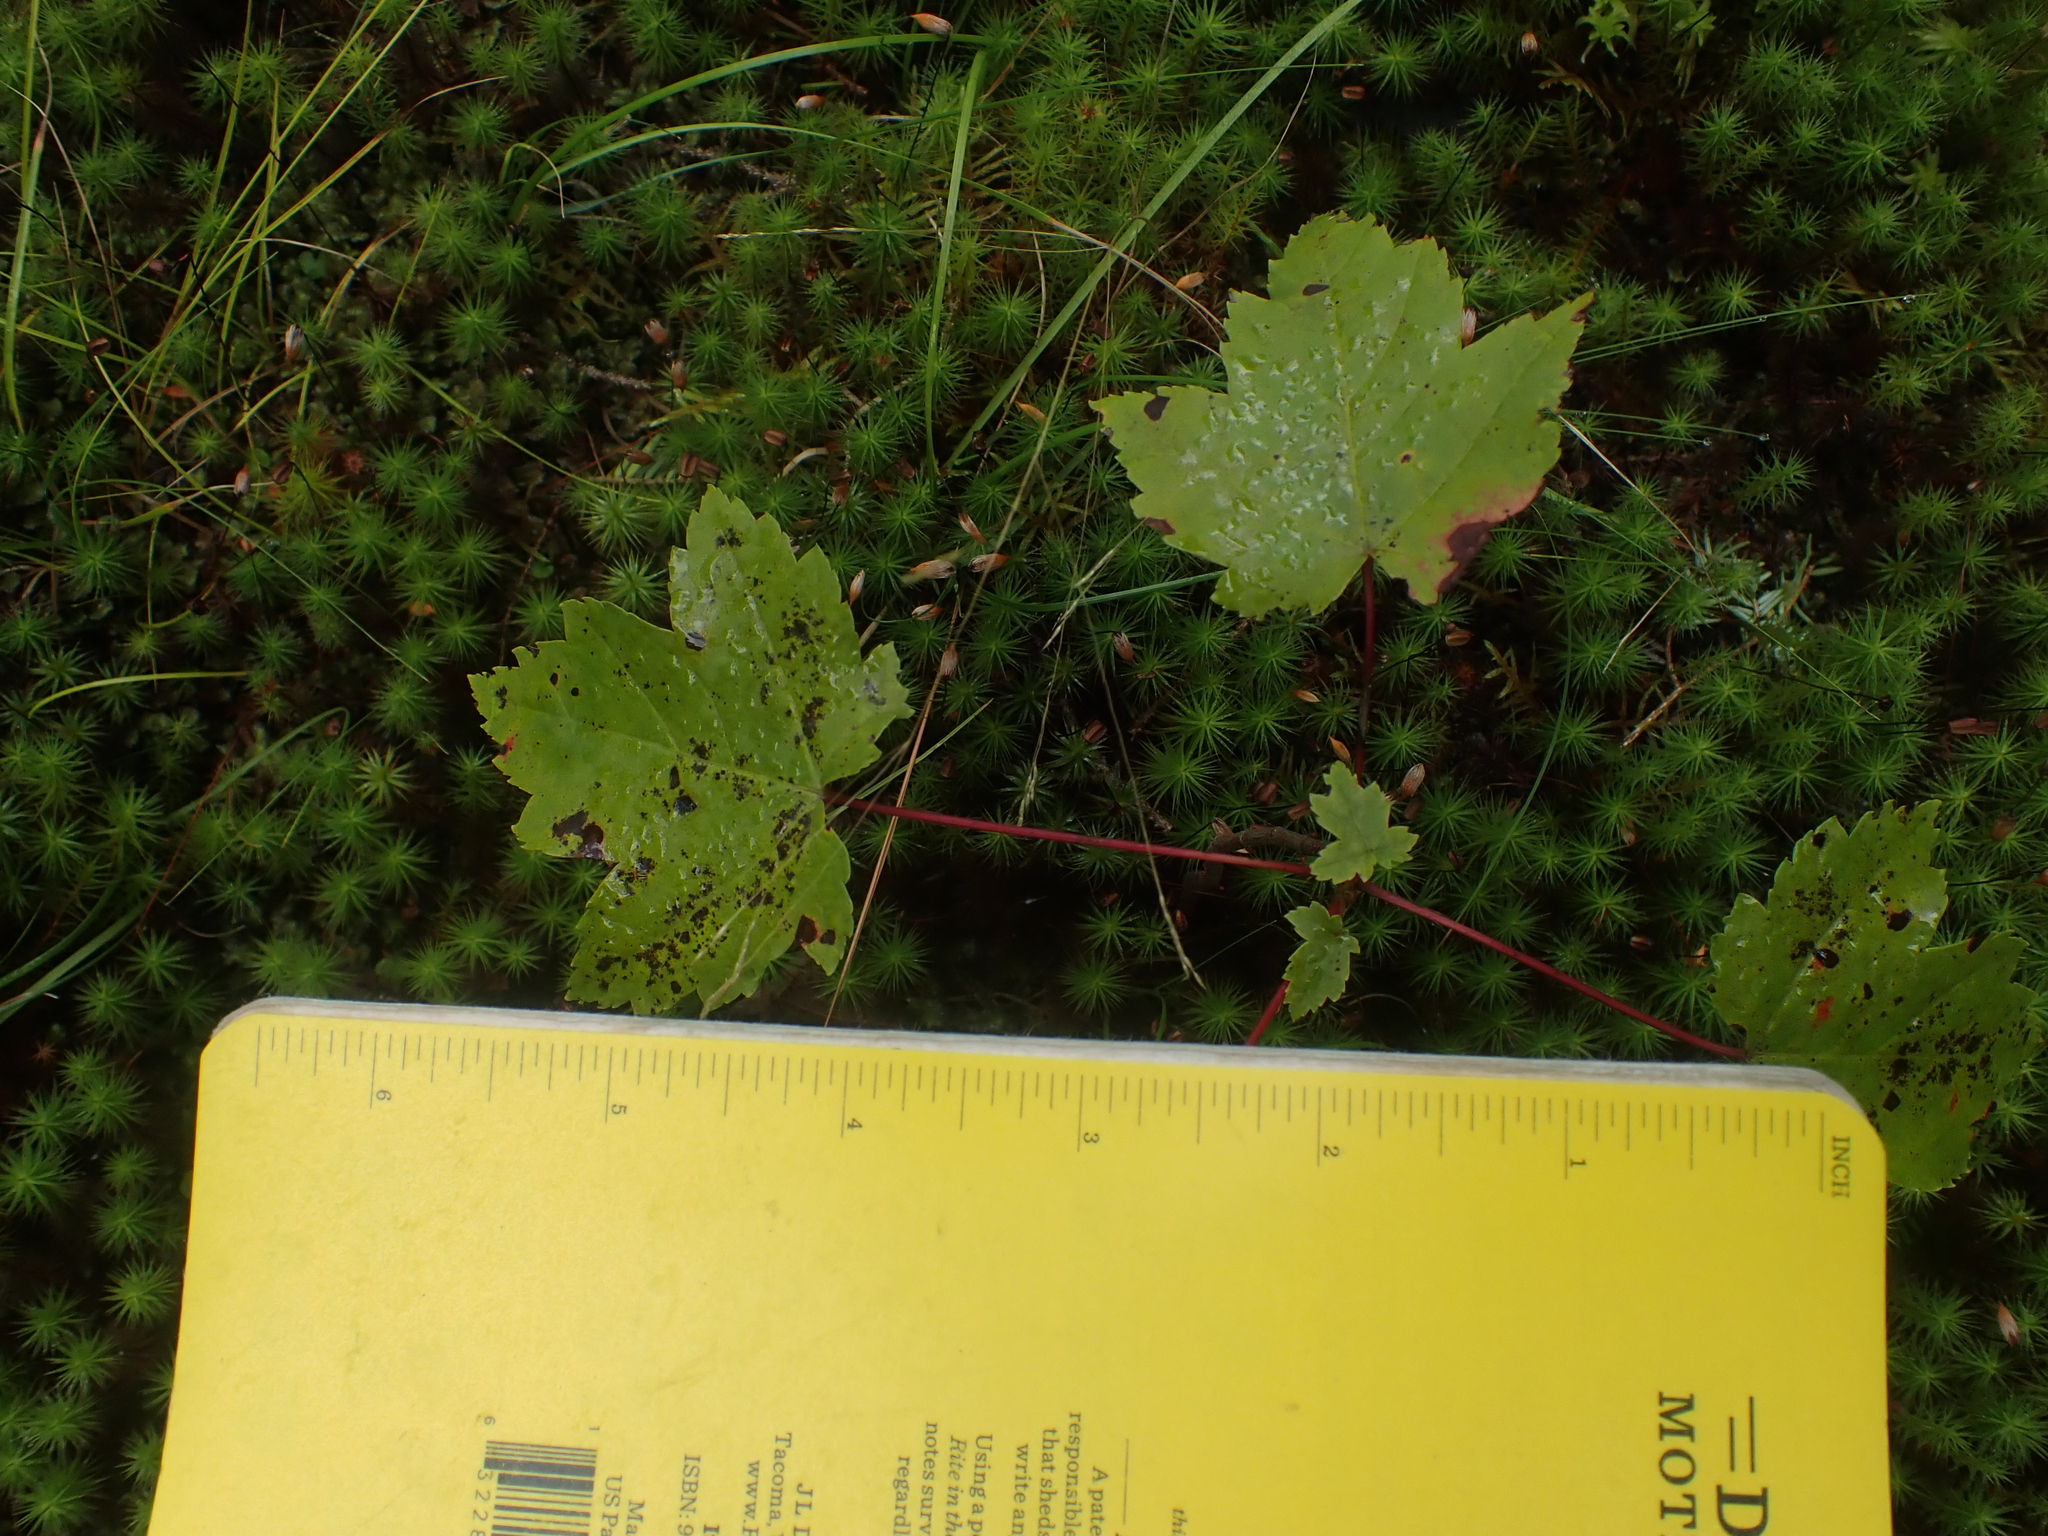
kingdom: Plantae
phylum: Tracheophyta
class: Magnoliopsida
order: Sapindales
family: Sapindaceae
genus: Acer
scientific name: Acer rubrum
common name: Red maple
